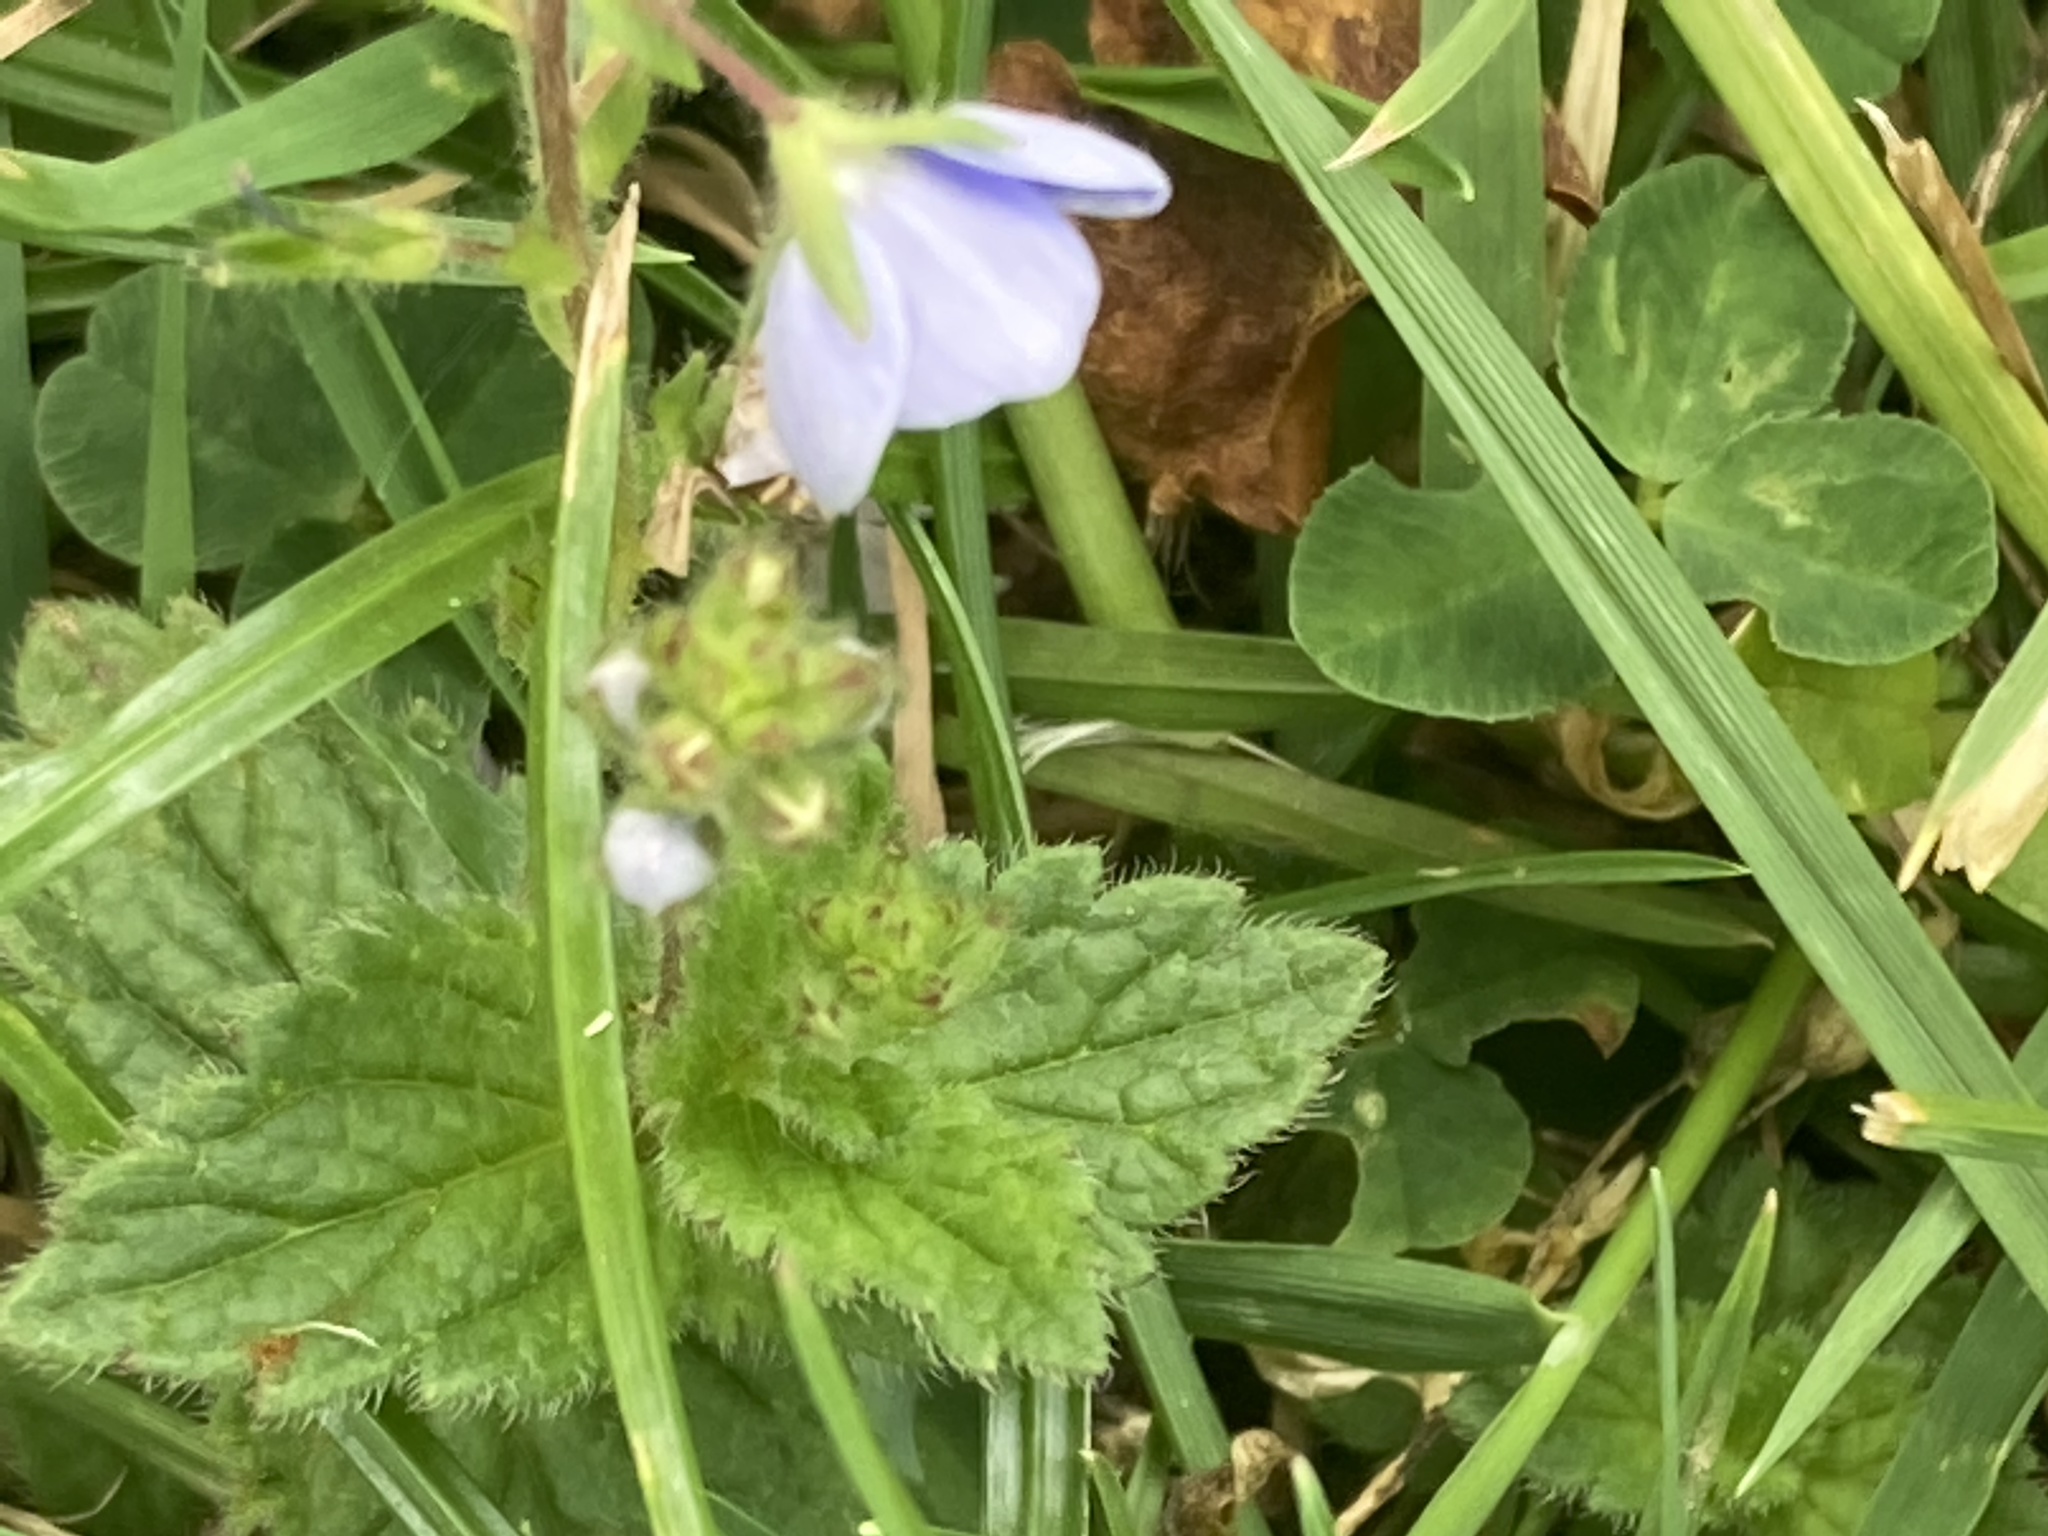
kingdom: Plantae
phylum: Tracheophyta
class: Magnoliopsida
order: Lamiales
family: Plantaginaceae
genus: Veronica
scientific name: Veronica chamaedrys
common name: Germander speedwell
